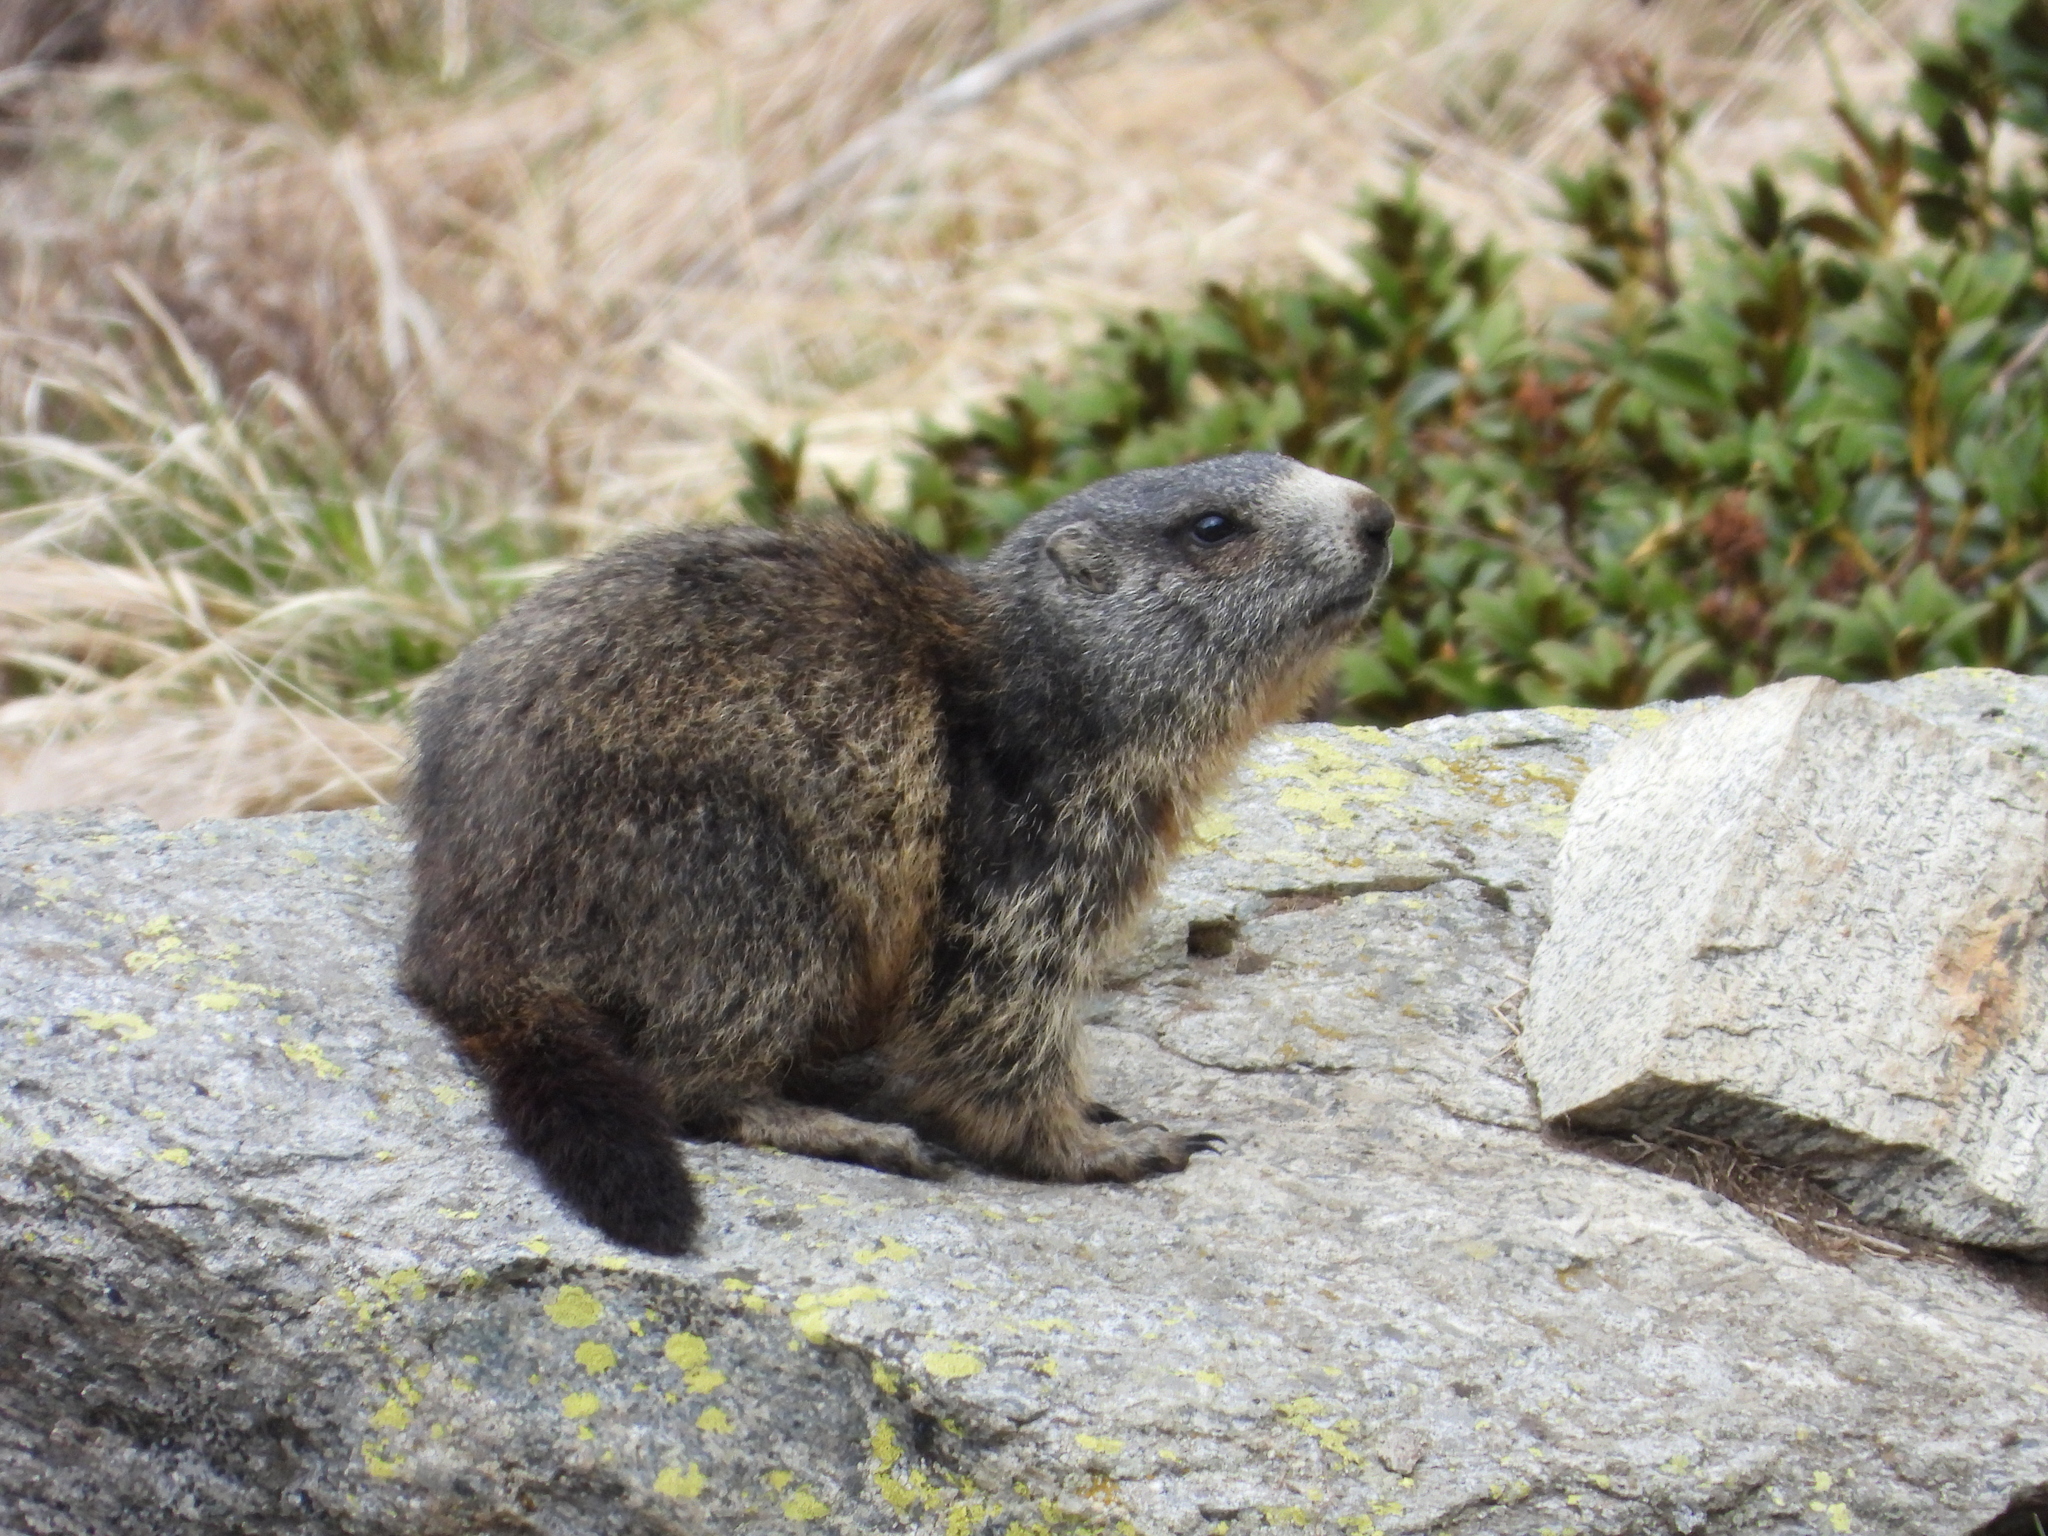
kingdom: Animalia
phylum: Chordata
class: Mammalia
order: Rodentia
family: Sciuridae
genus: Marmota
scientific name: Marmota marmota
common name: Alpine marmot
